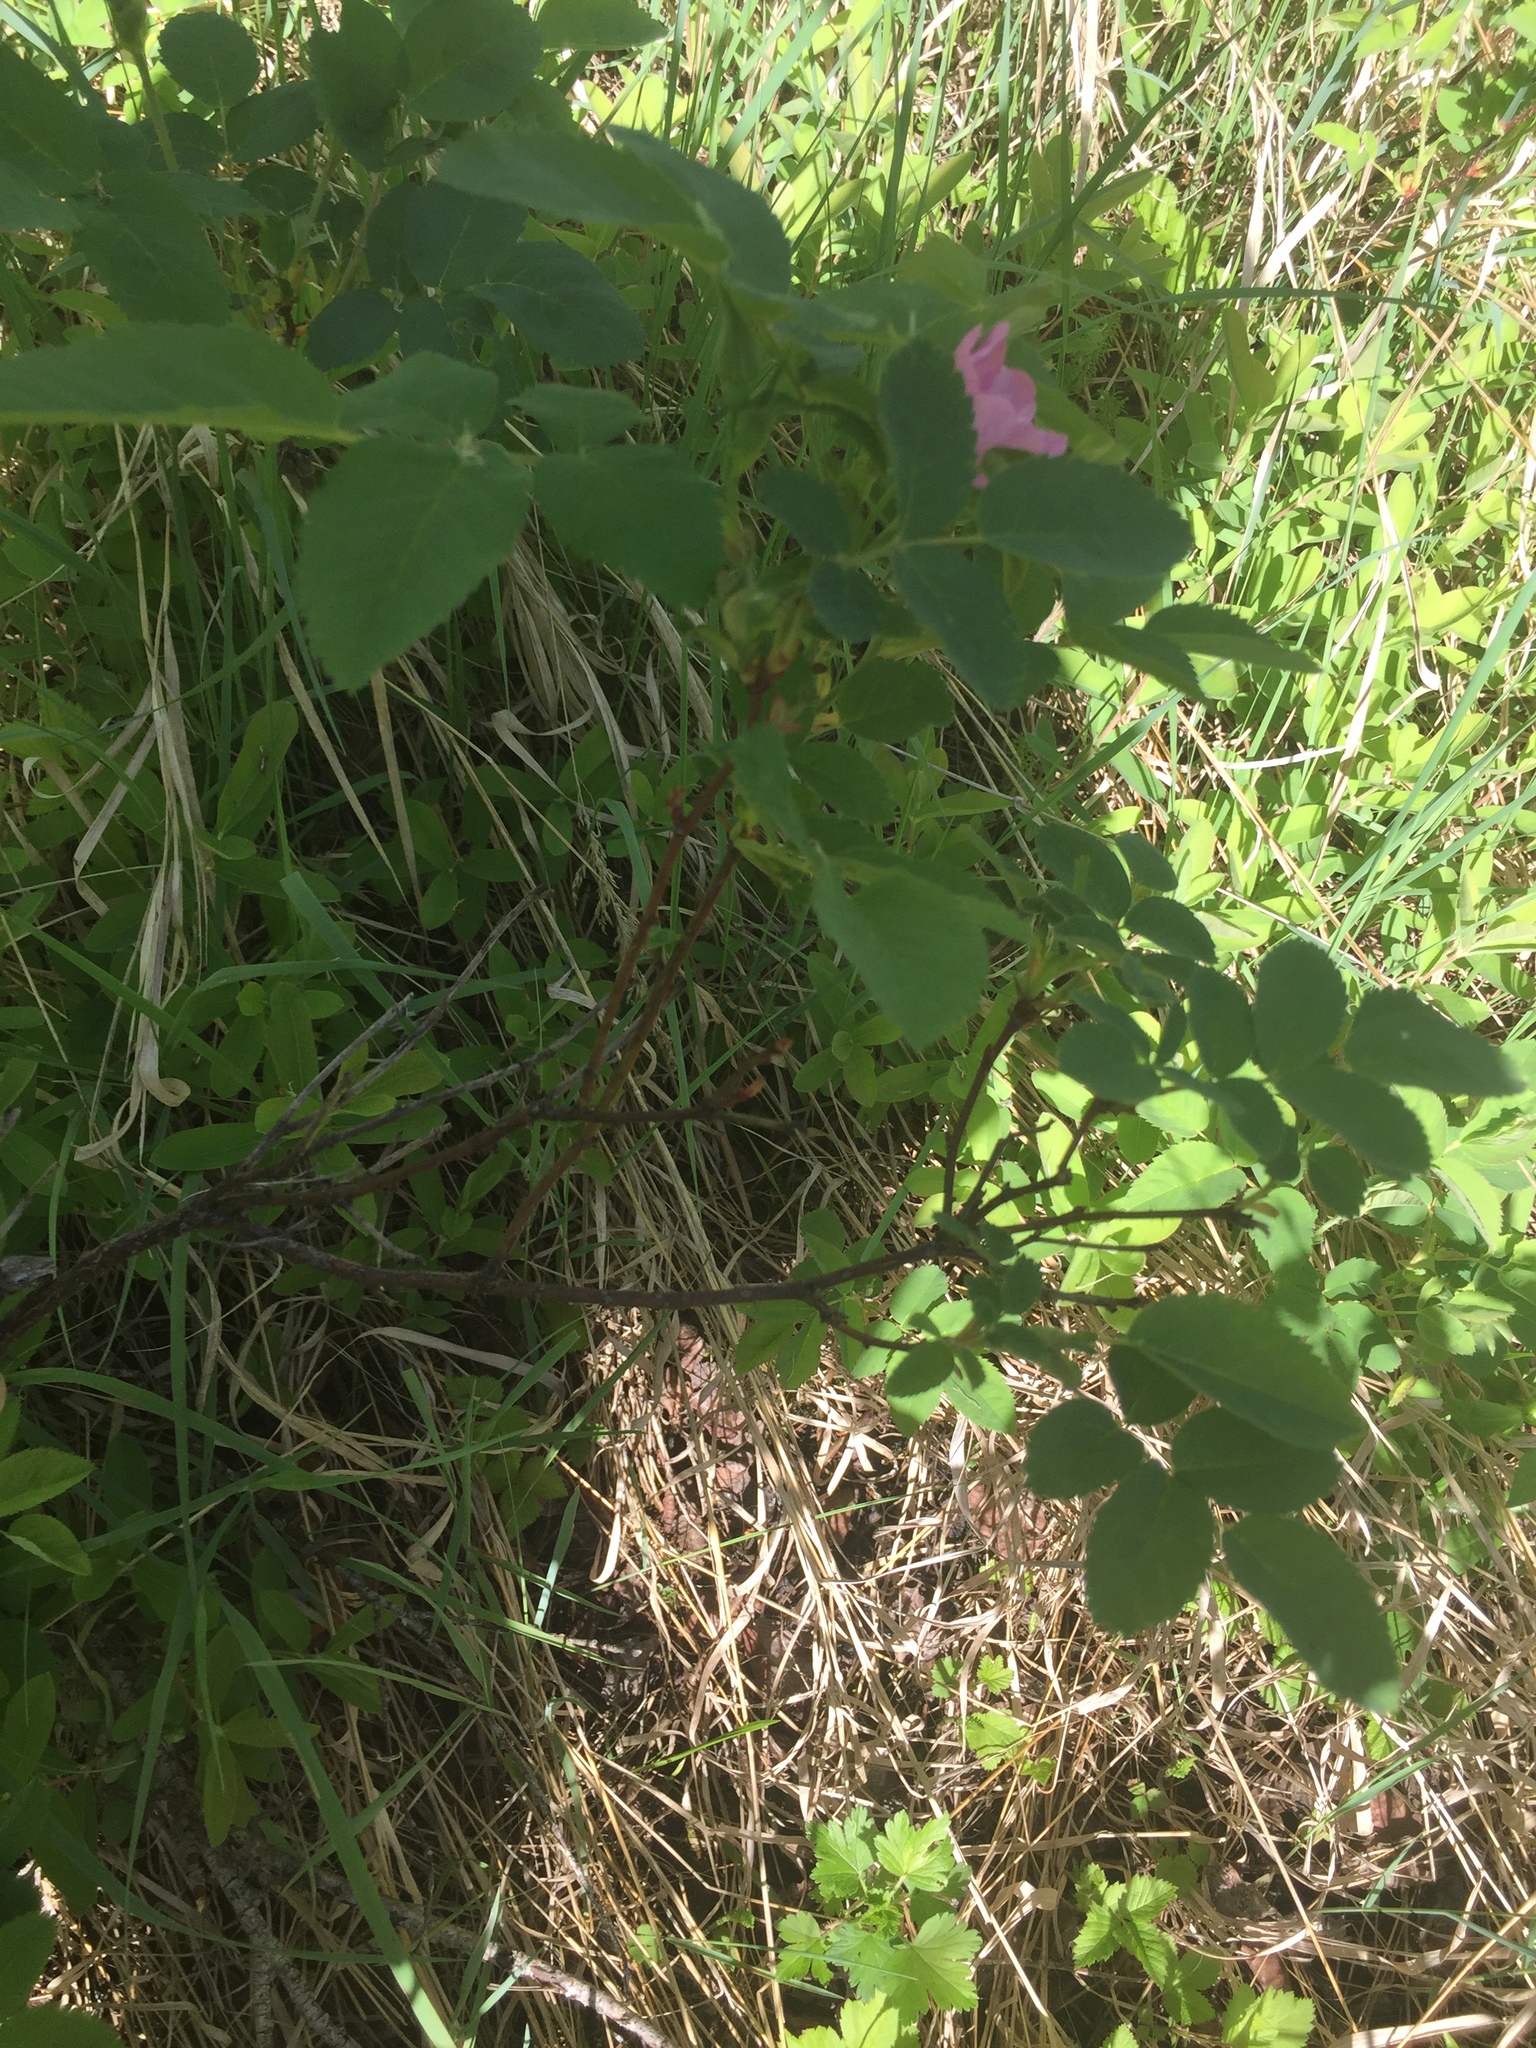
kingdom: Plantae
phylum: Tracheophyta
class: Magnoliopsida
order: Rosales
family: Rosaceae
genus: Rosa
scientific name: Rosa acicularis
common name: Prickly rose
